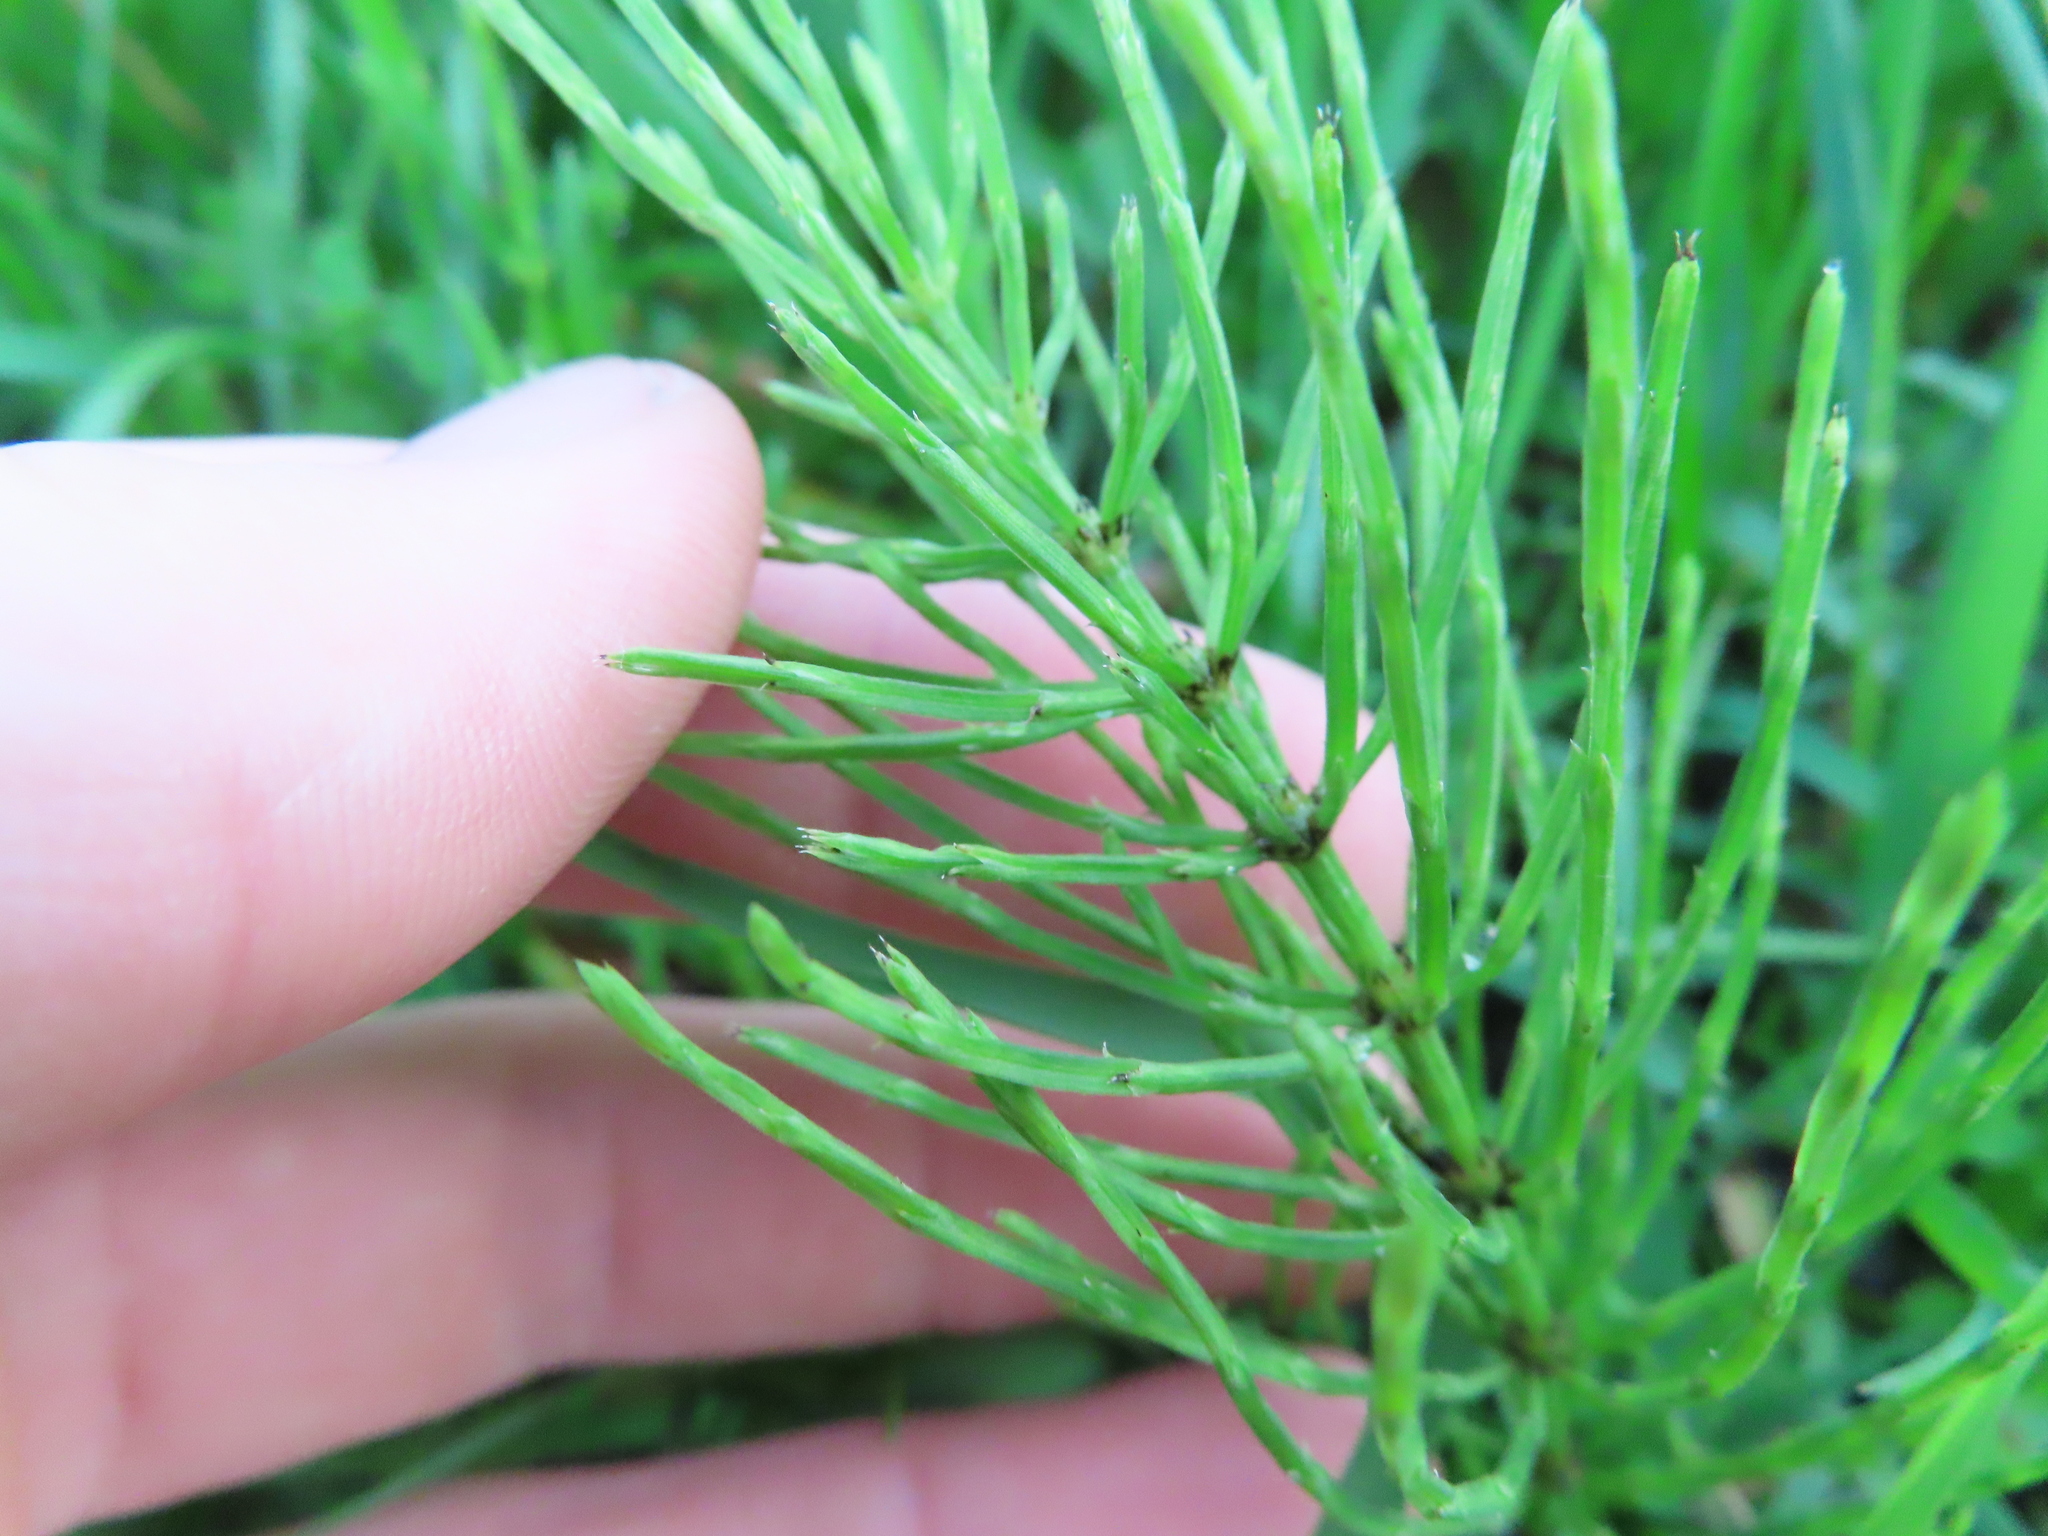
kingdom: Plantae
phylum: Tracheophyta
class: Polypodiopsida
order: Equisetales
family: Equisetaceae
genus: Equisetum
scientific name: Equisetum arvense
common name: Field horsetail
